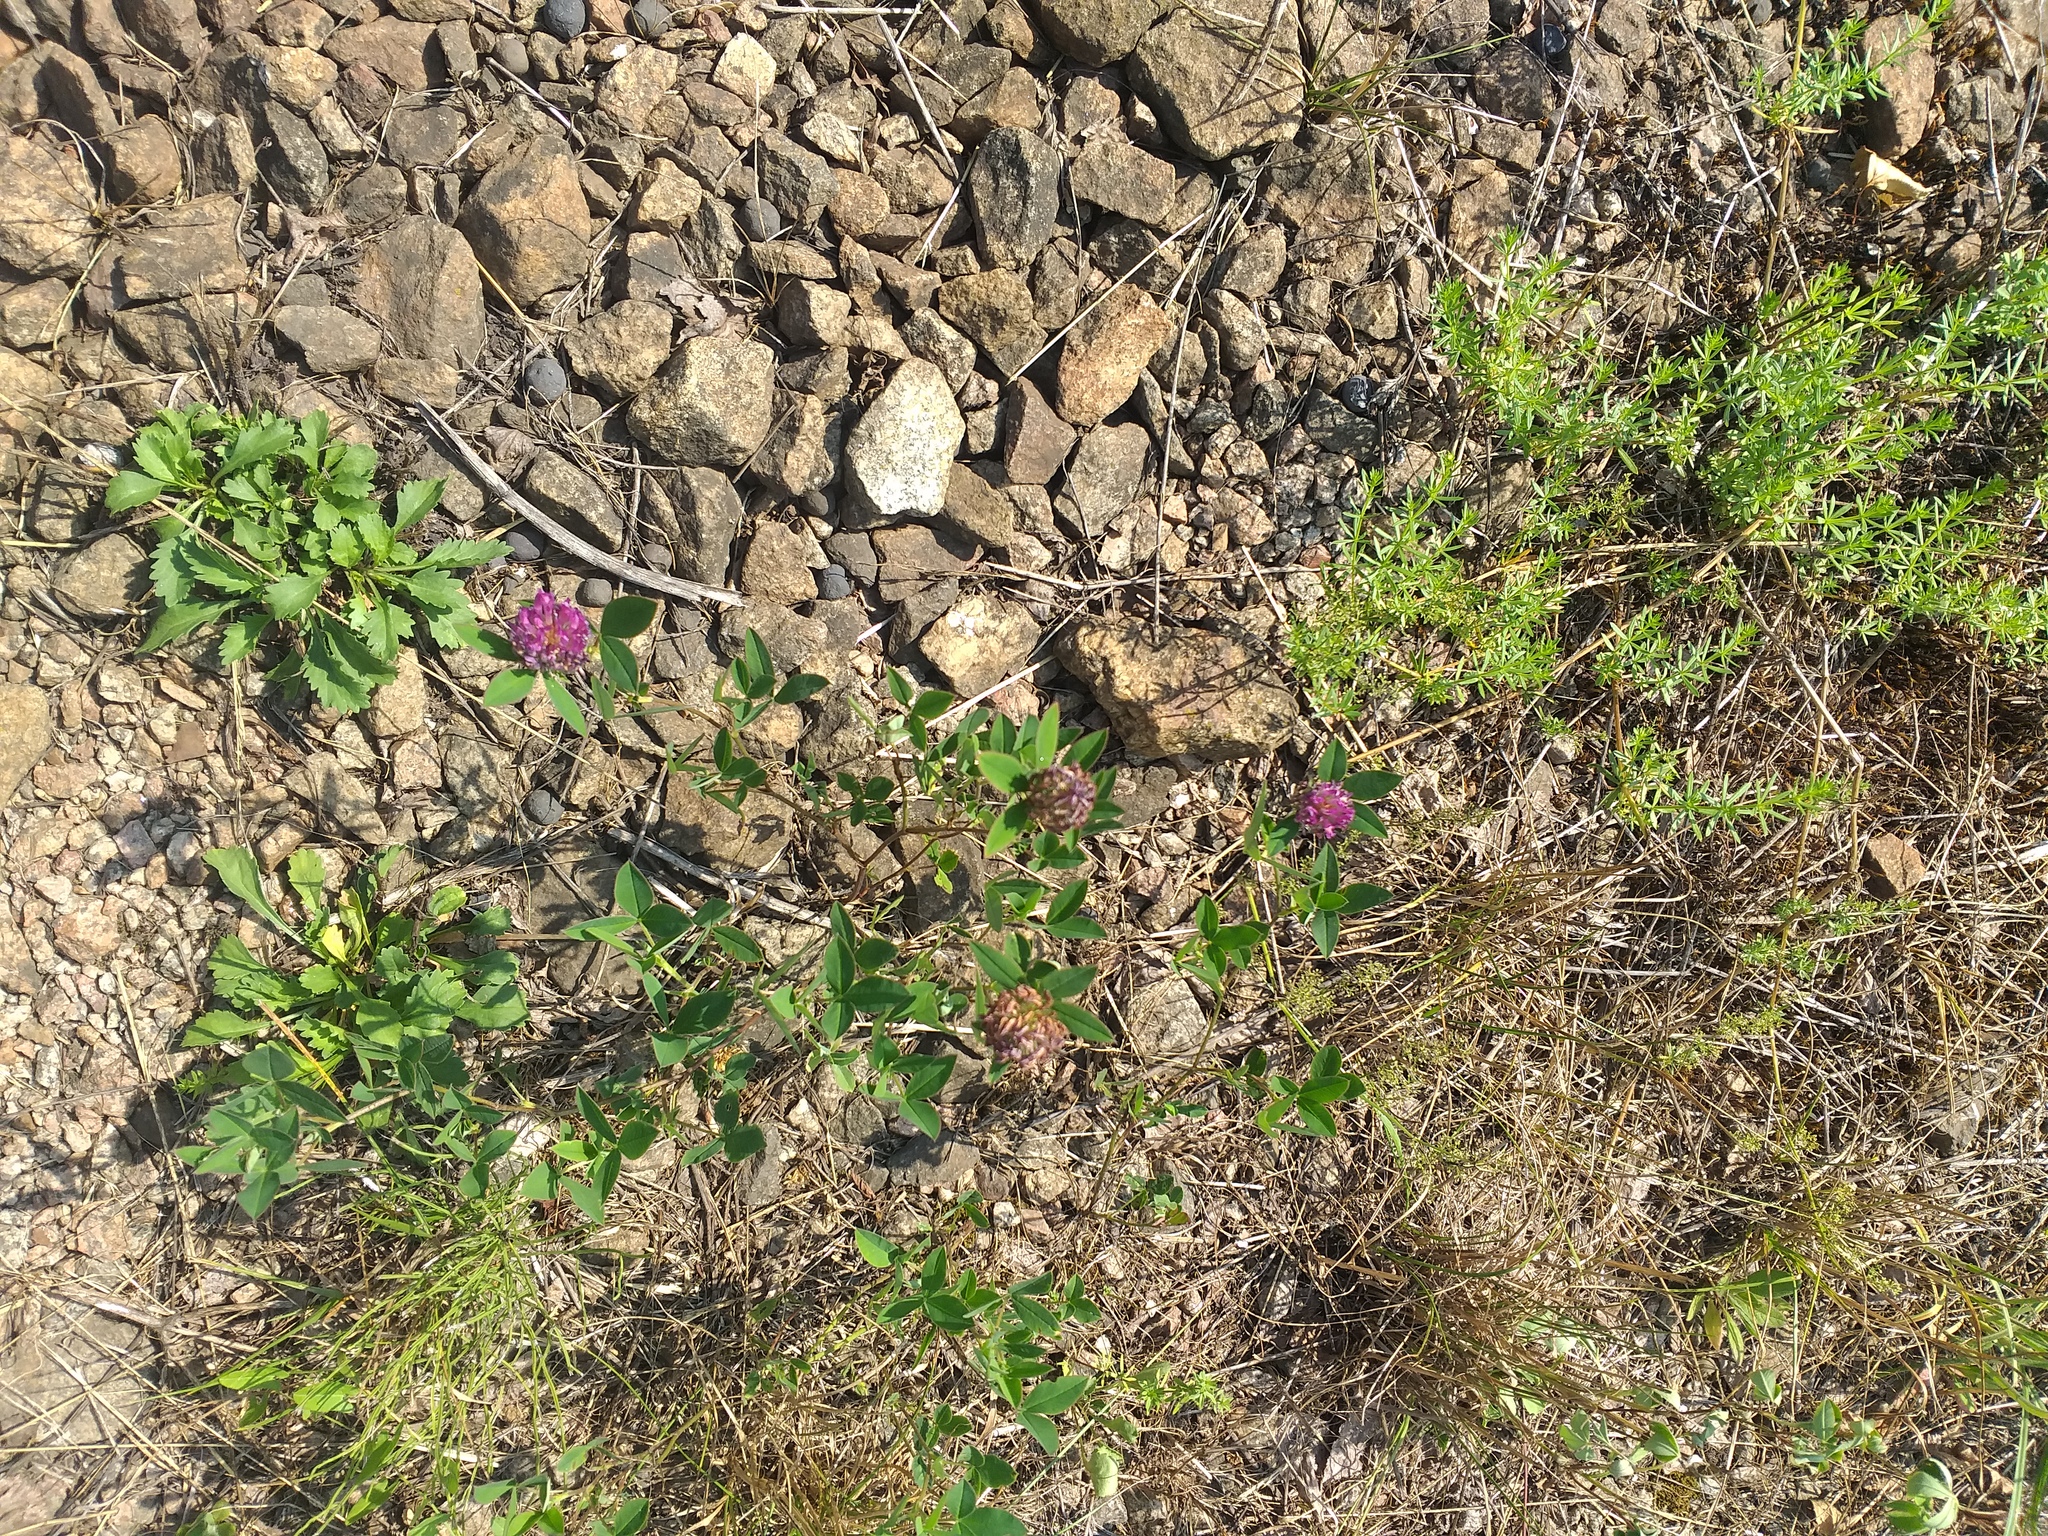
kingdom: Plantae
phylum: Tracheophyta
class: Magnoliopsida
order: Fabales
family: Fabaceae
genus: Trifolium
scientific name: Trifolium medium
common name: Zigzag clover
